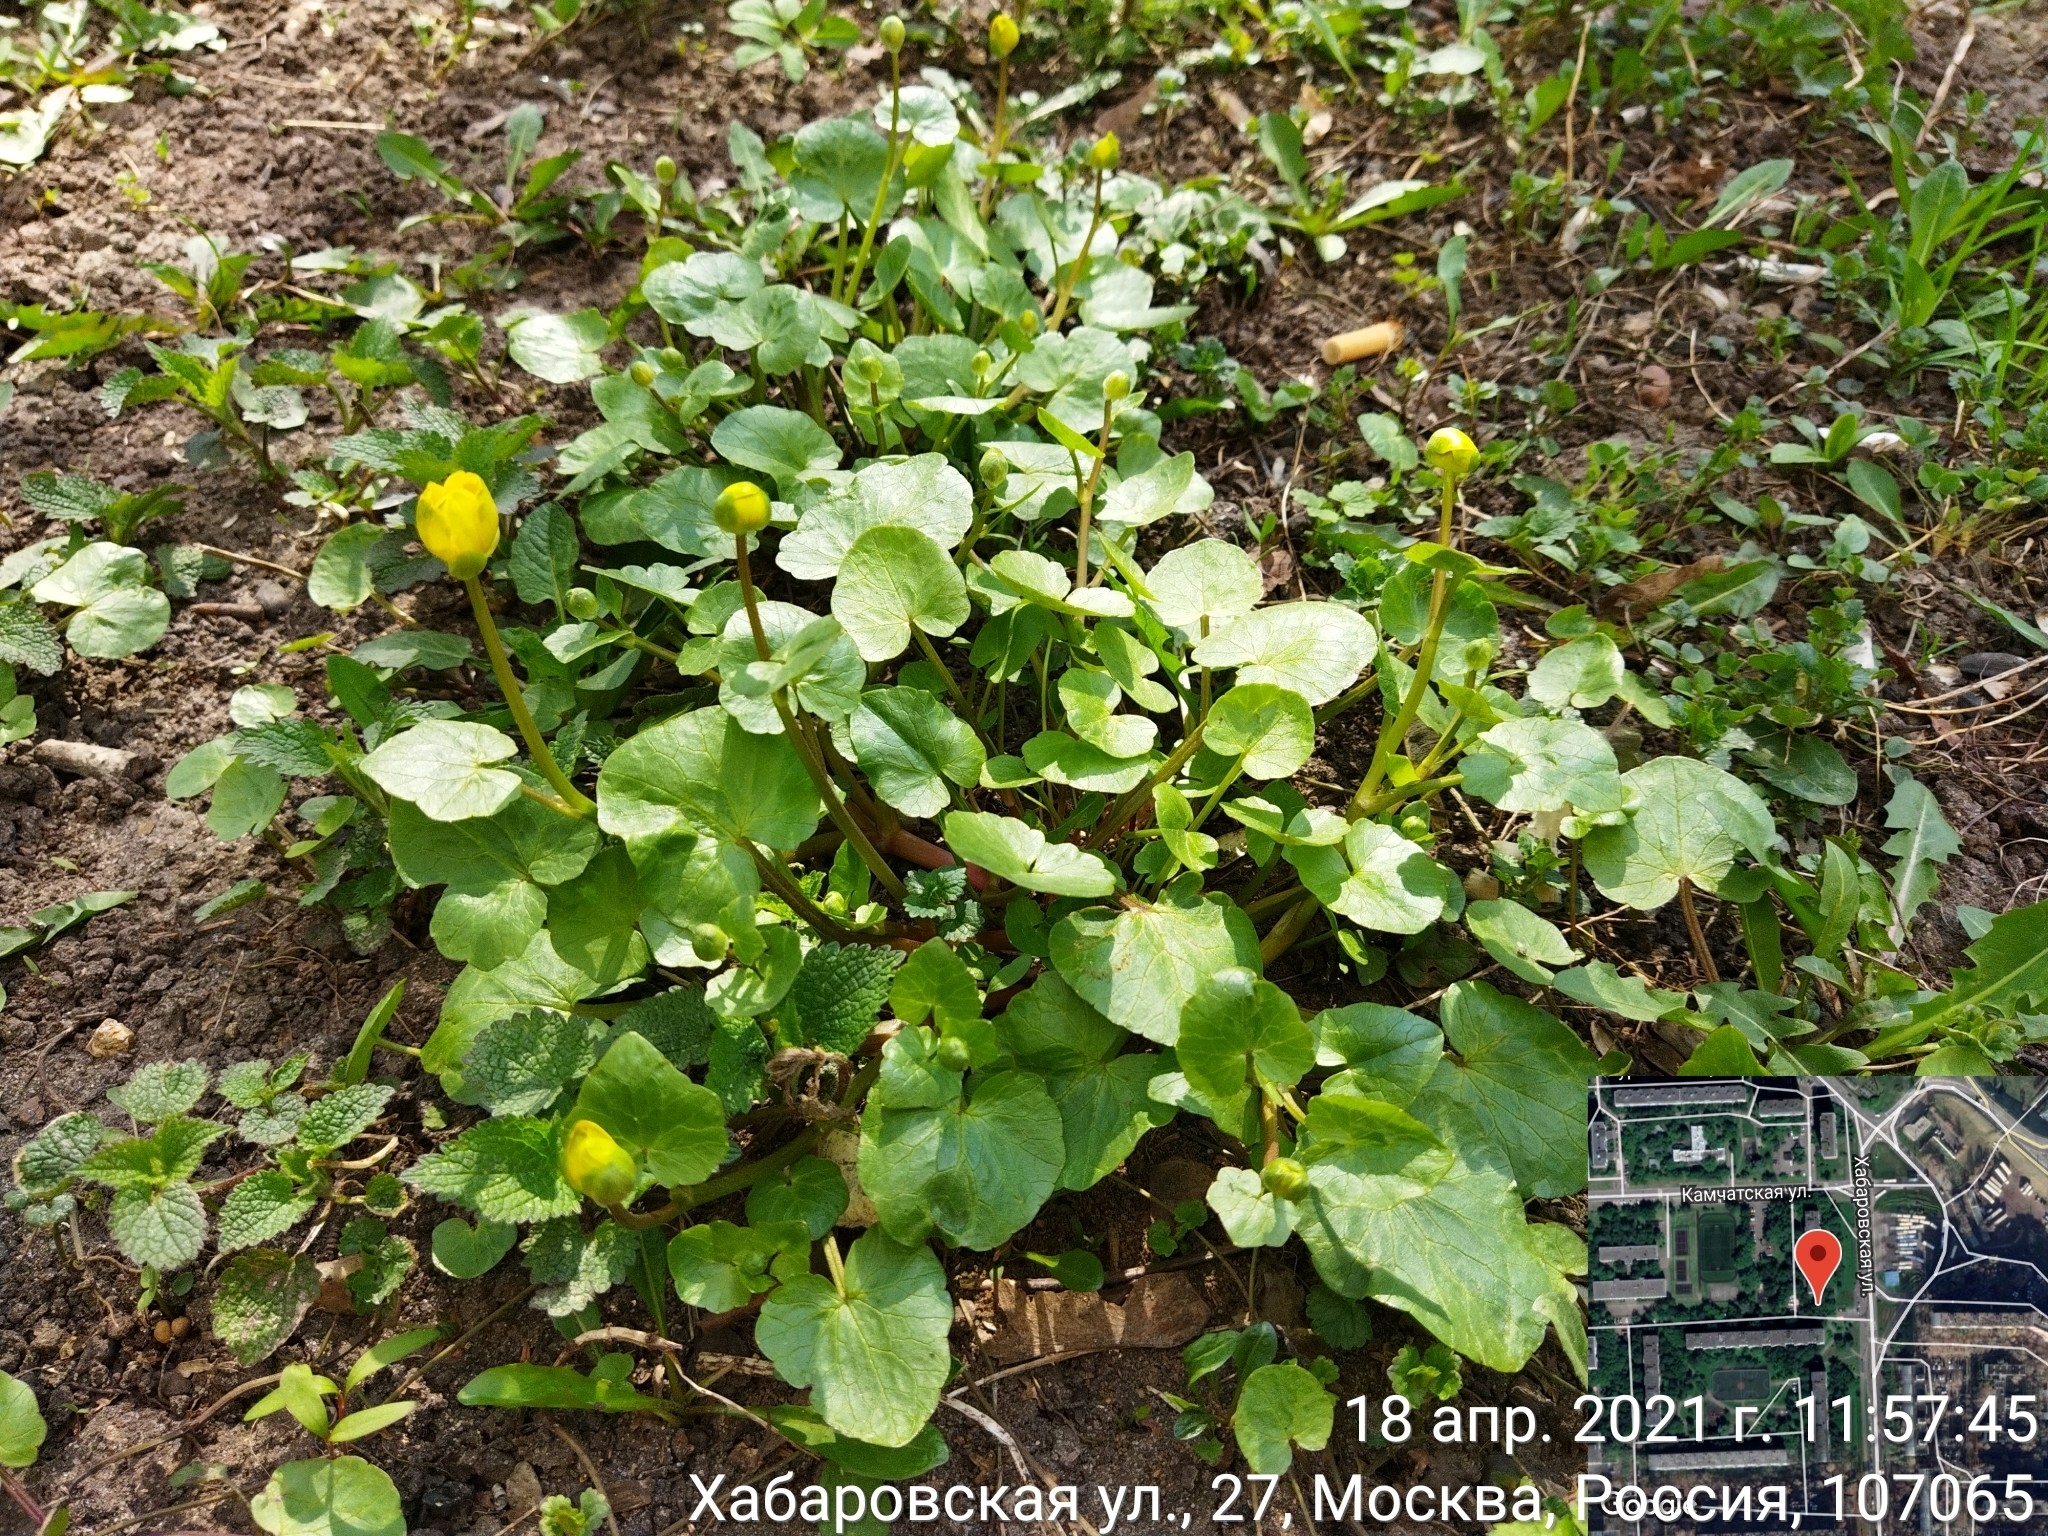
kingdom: Plantae
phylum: Tracheophyta
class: Magnoliopsida
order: Ranunculales
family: Ranunculaceae
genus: Ficaria
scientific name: Ficaria verna
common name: Lesser celandine
